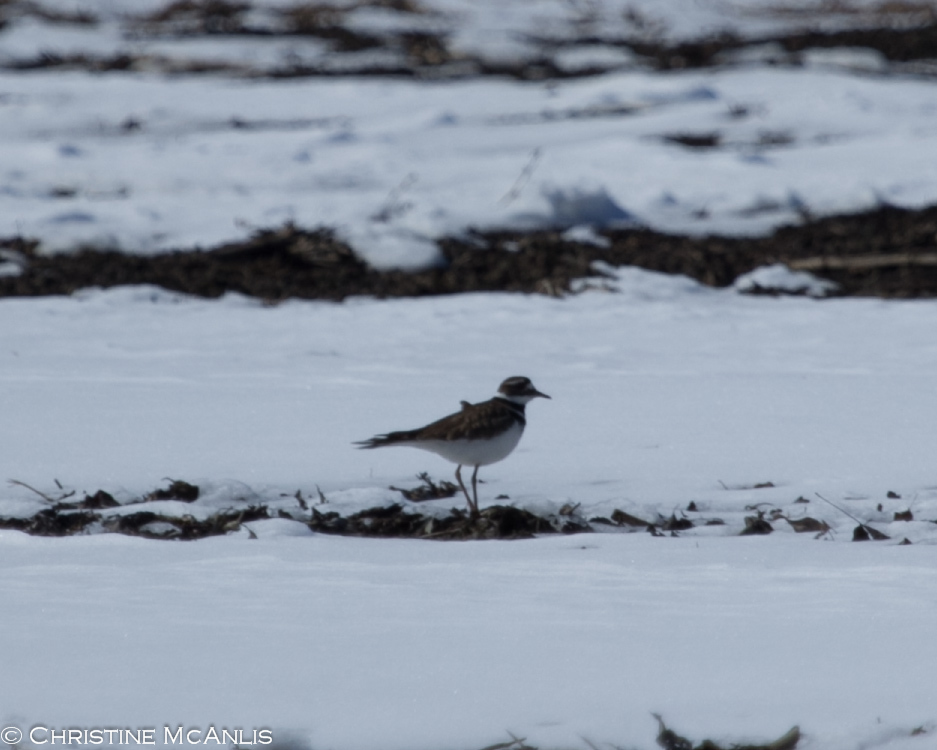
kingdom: Animalia
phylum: Chordata
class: Aves
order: Charadriiformes
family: Charadriidae
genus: Charadrius
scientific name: Charadrius vociferus
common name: Killdeer
